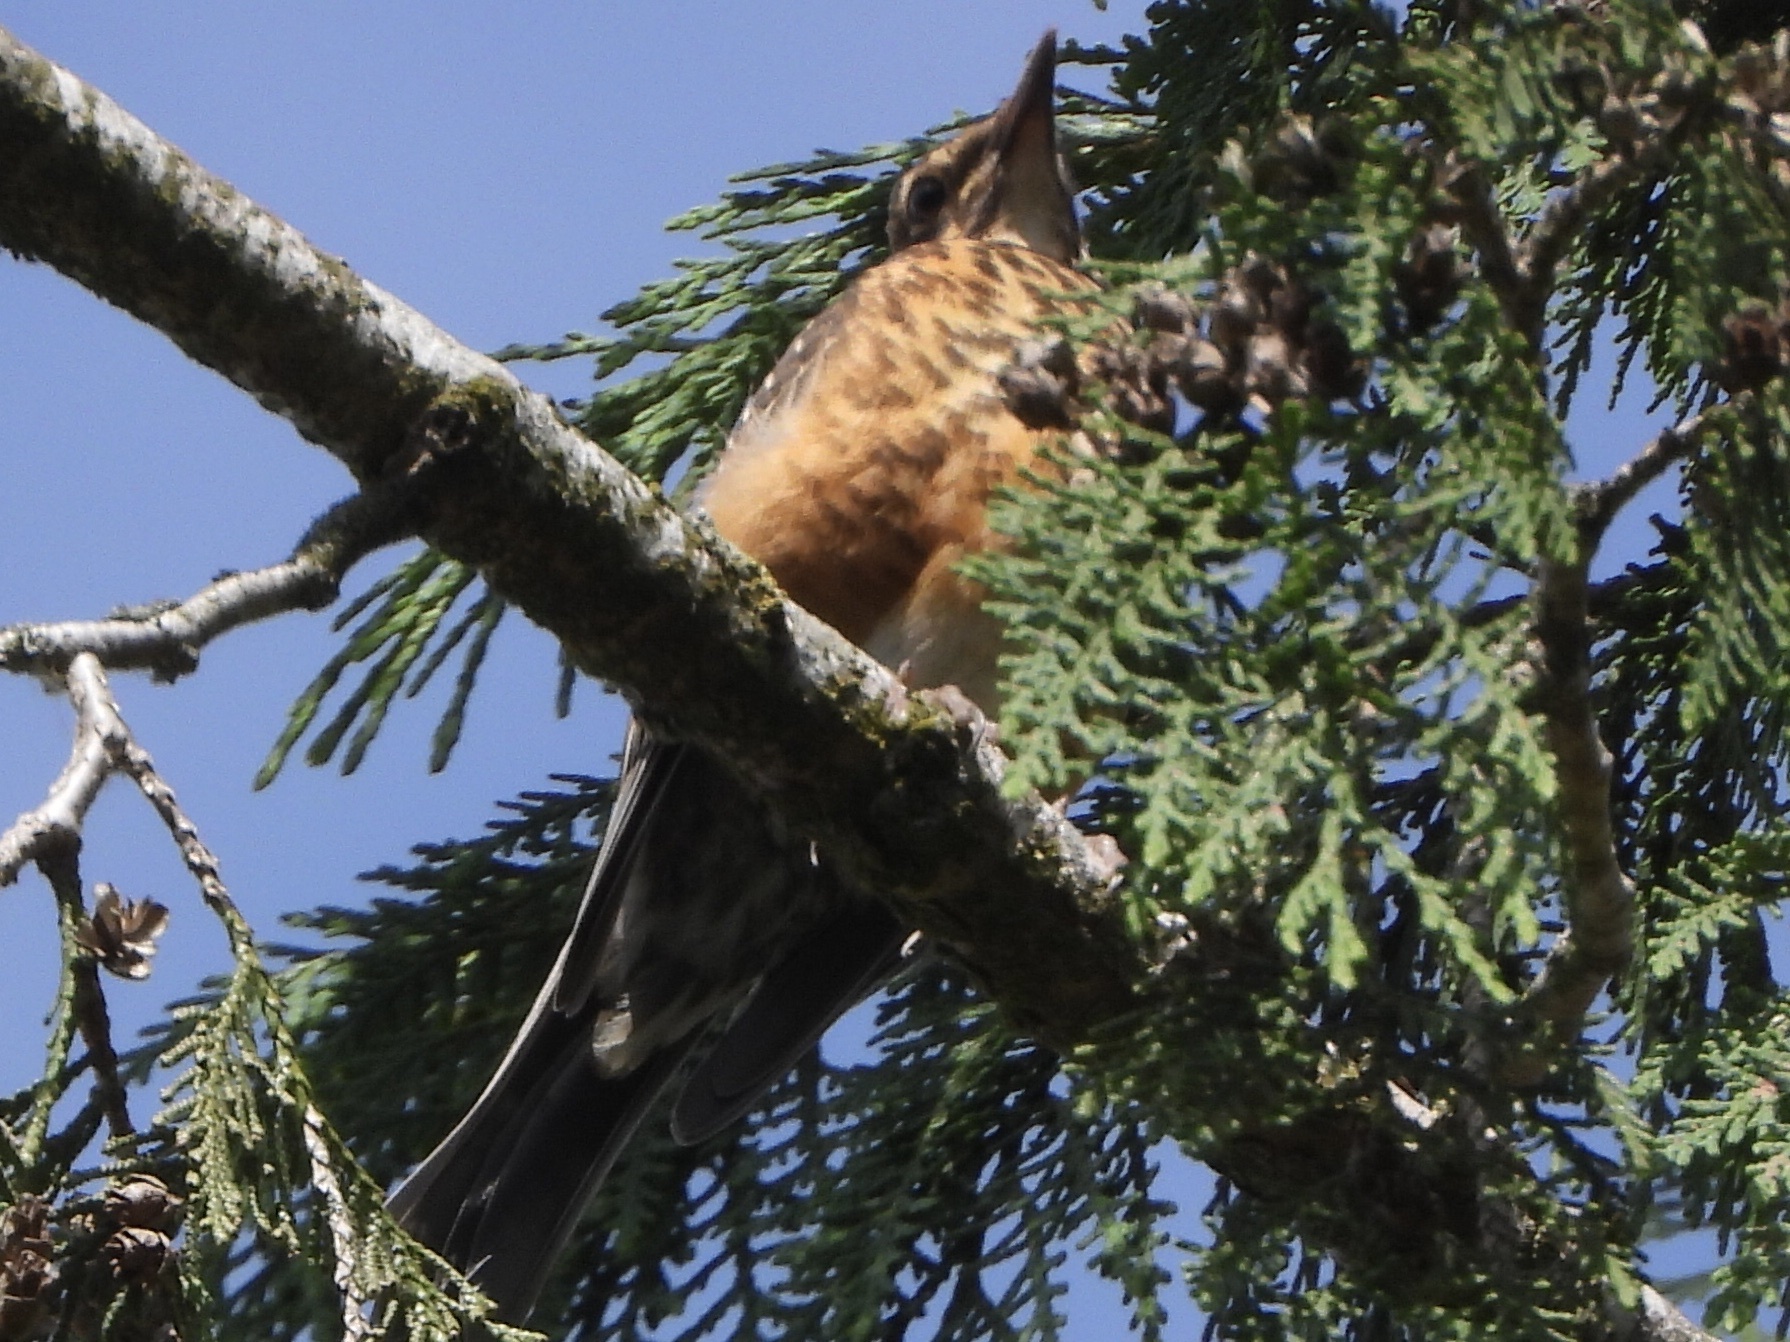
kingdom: Animalia
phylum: Chordata
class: Aves
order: Passeriformes
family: Turdidae
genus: Turdus
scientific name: Turdus migratorius
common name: American robin
